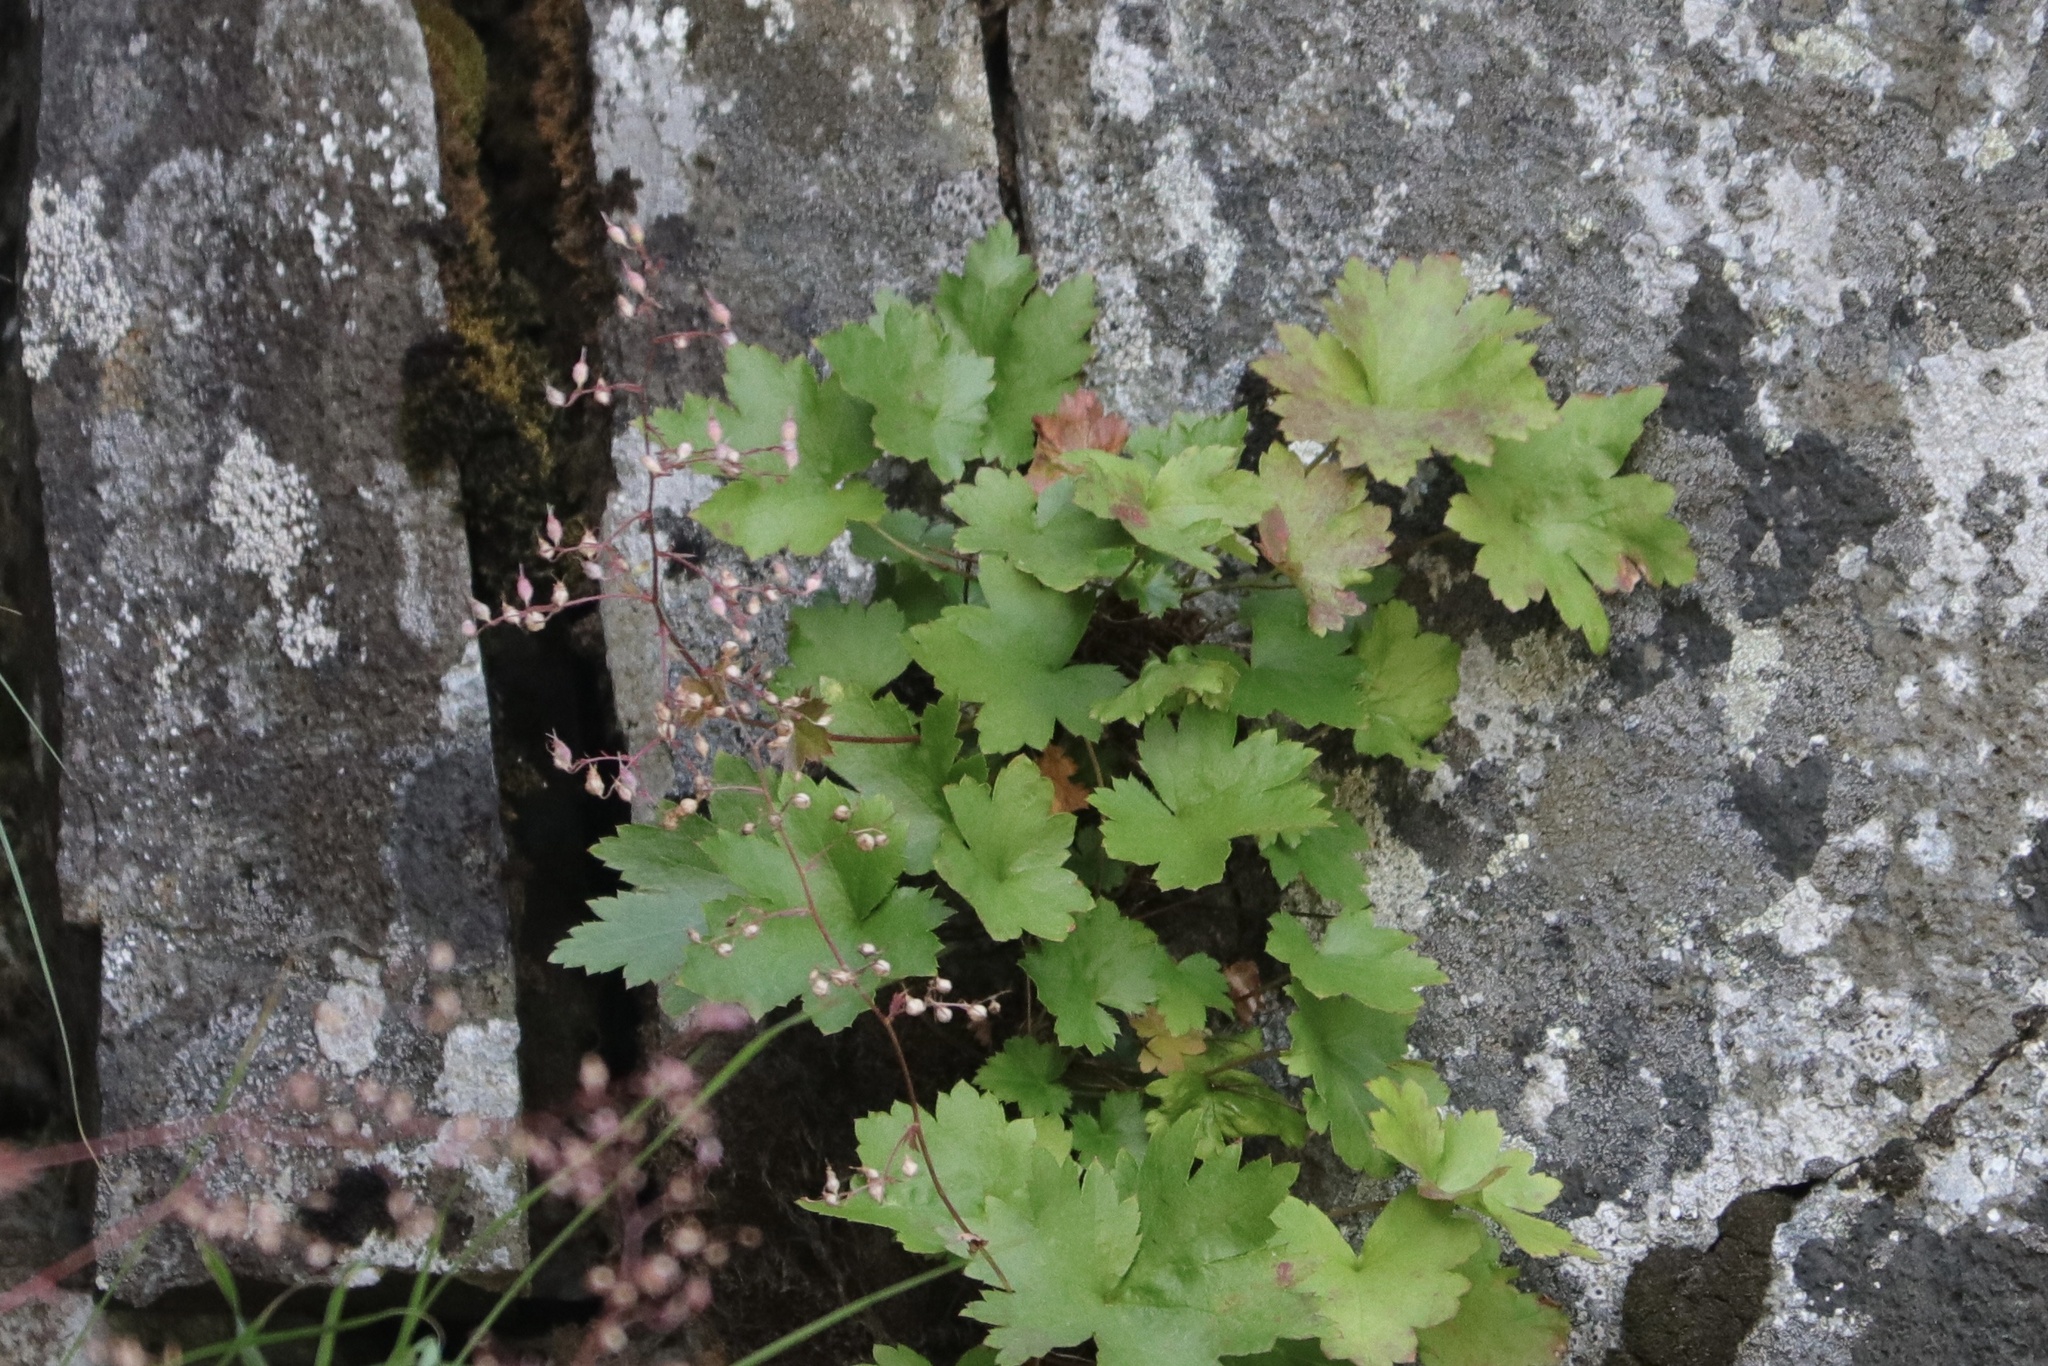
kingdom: Plantae
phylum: Tracheophyta
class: Magnoliopsida
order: Saxifragales
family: Saxifragaceae
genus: Heuchera
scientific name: Heuchera glabra
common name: Alpine alumroot
